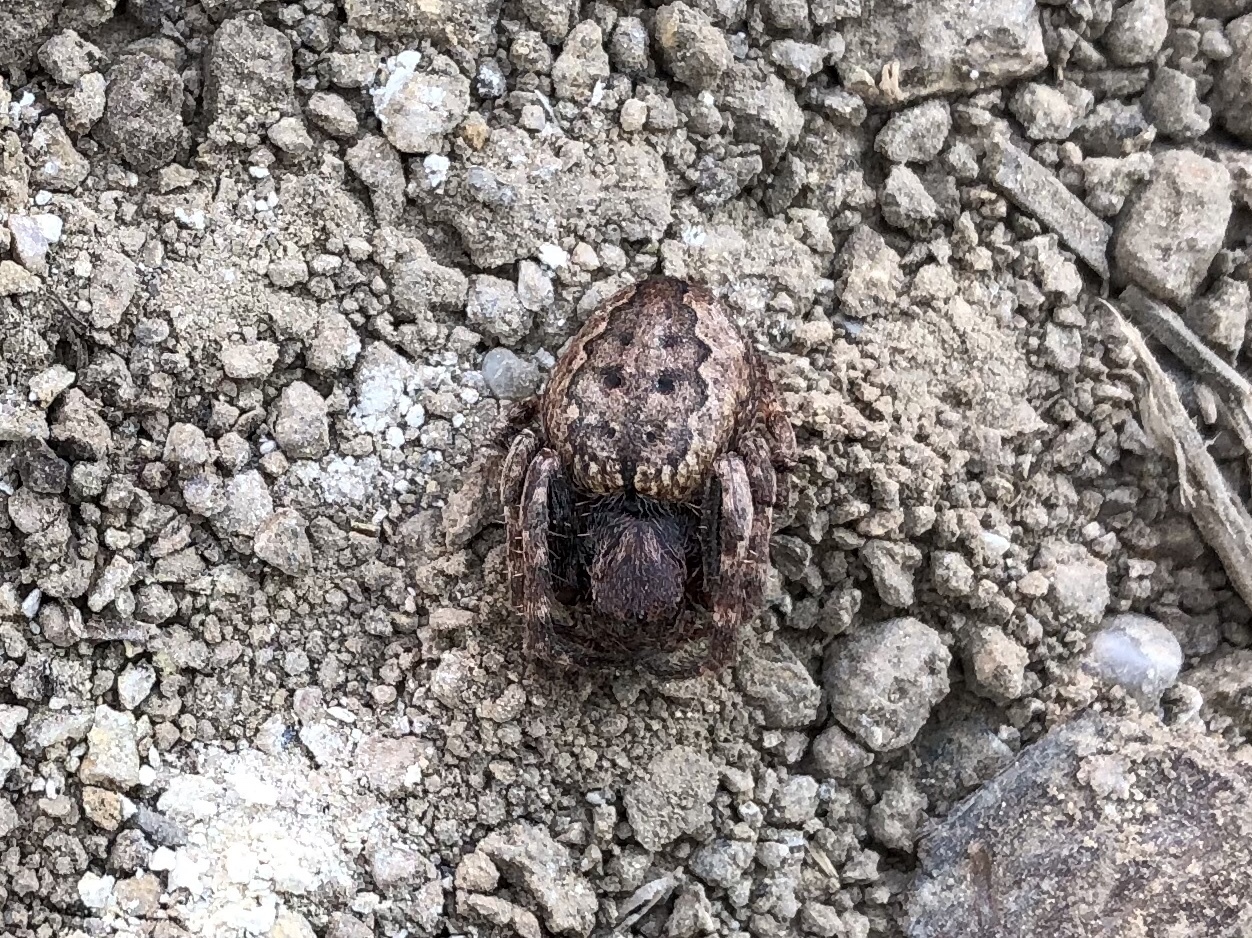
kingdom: Animalia
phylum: Arthropoda
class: Arachnida
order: Araneae
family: Araneidae
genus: Nuctenea
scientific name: Nuctenea umbratica
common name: Toad spider
